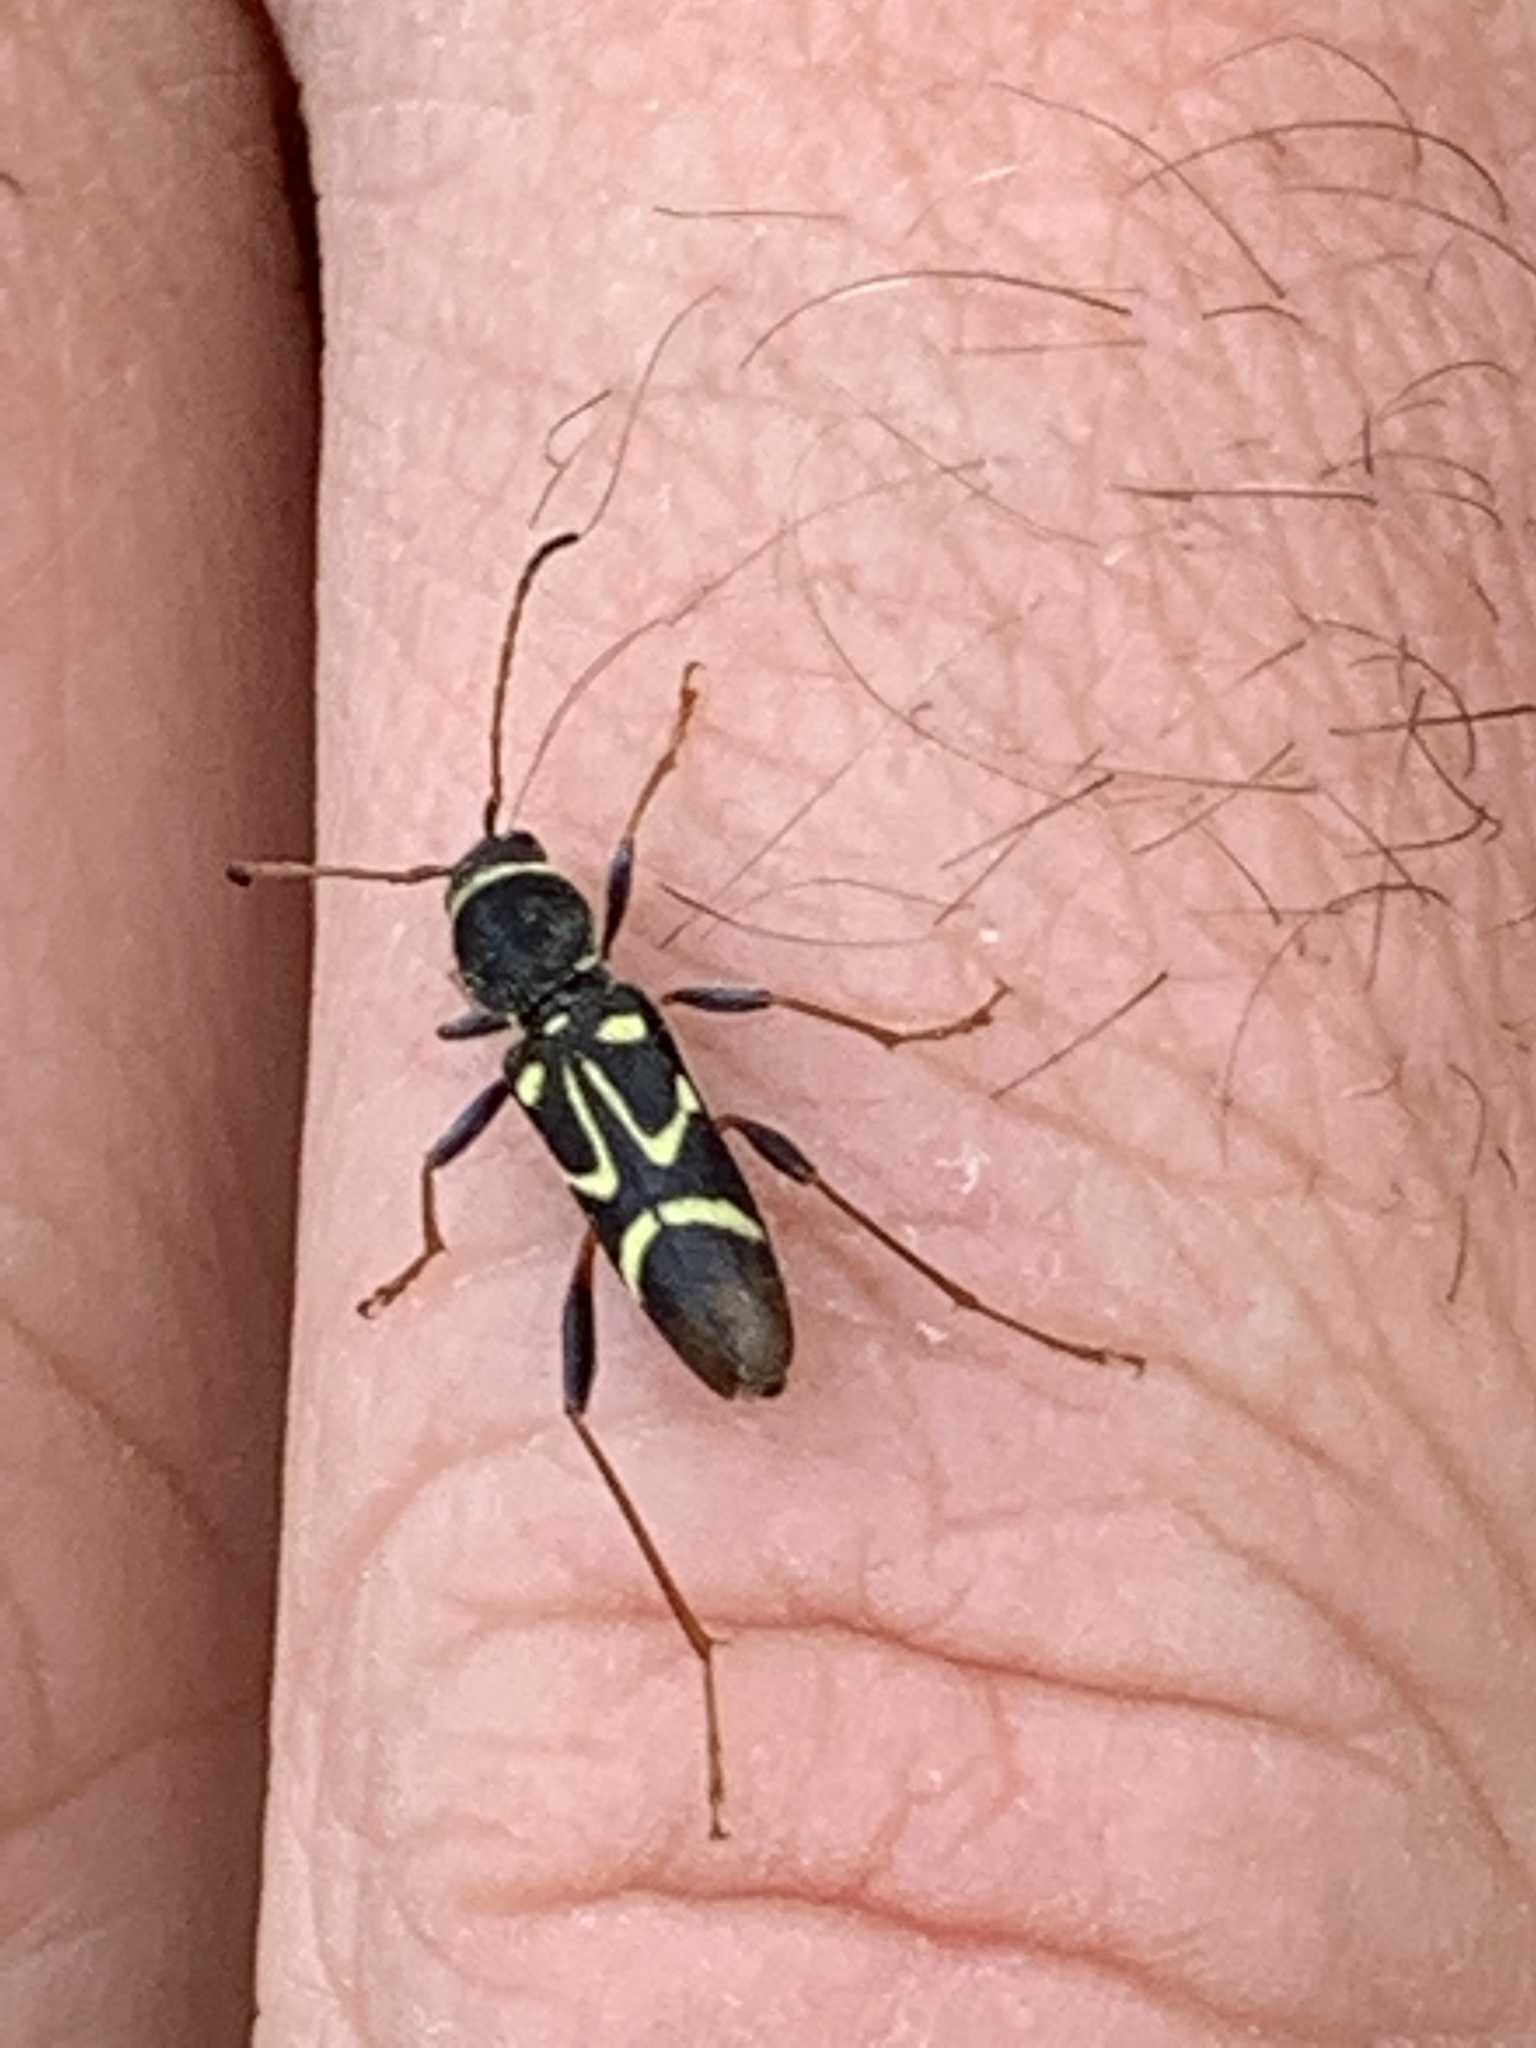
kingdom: Animalia
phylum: Arthropoda
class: Insecta
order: Coleoptera
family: Cerambycidae
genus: Clytus
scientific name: Clytus ruricola
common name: Round-necked longhorn beetle
